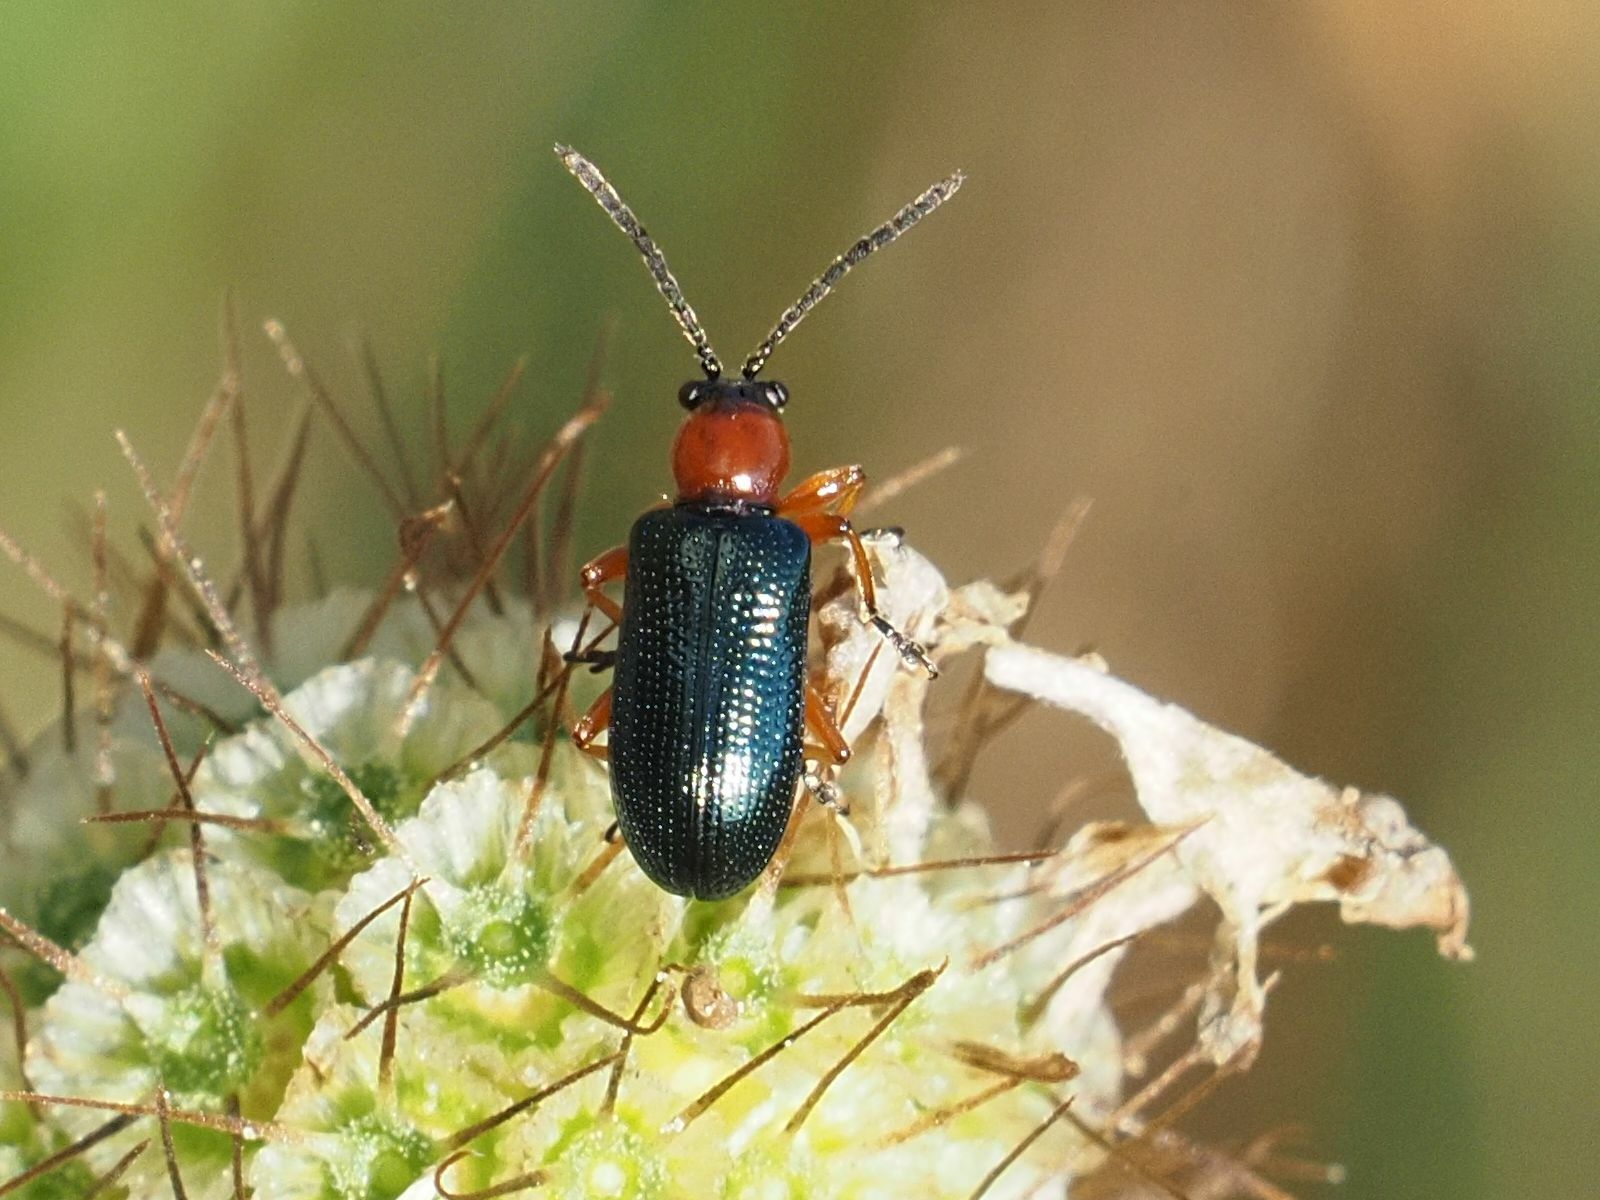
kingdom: Animalia
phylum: Arthropoda
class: Insecta
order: Coleoptera
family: Chrysomelidae
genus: Oulema
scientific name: Oulema
